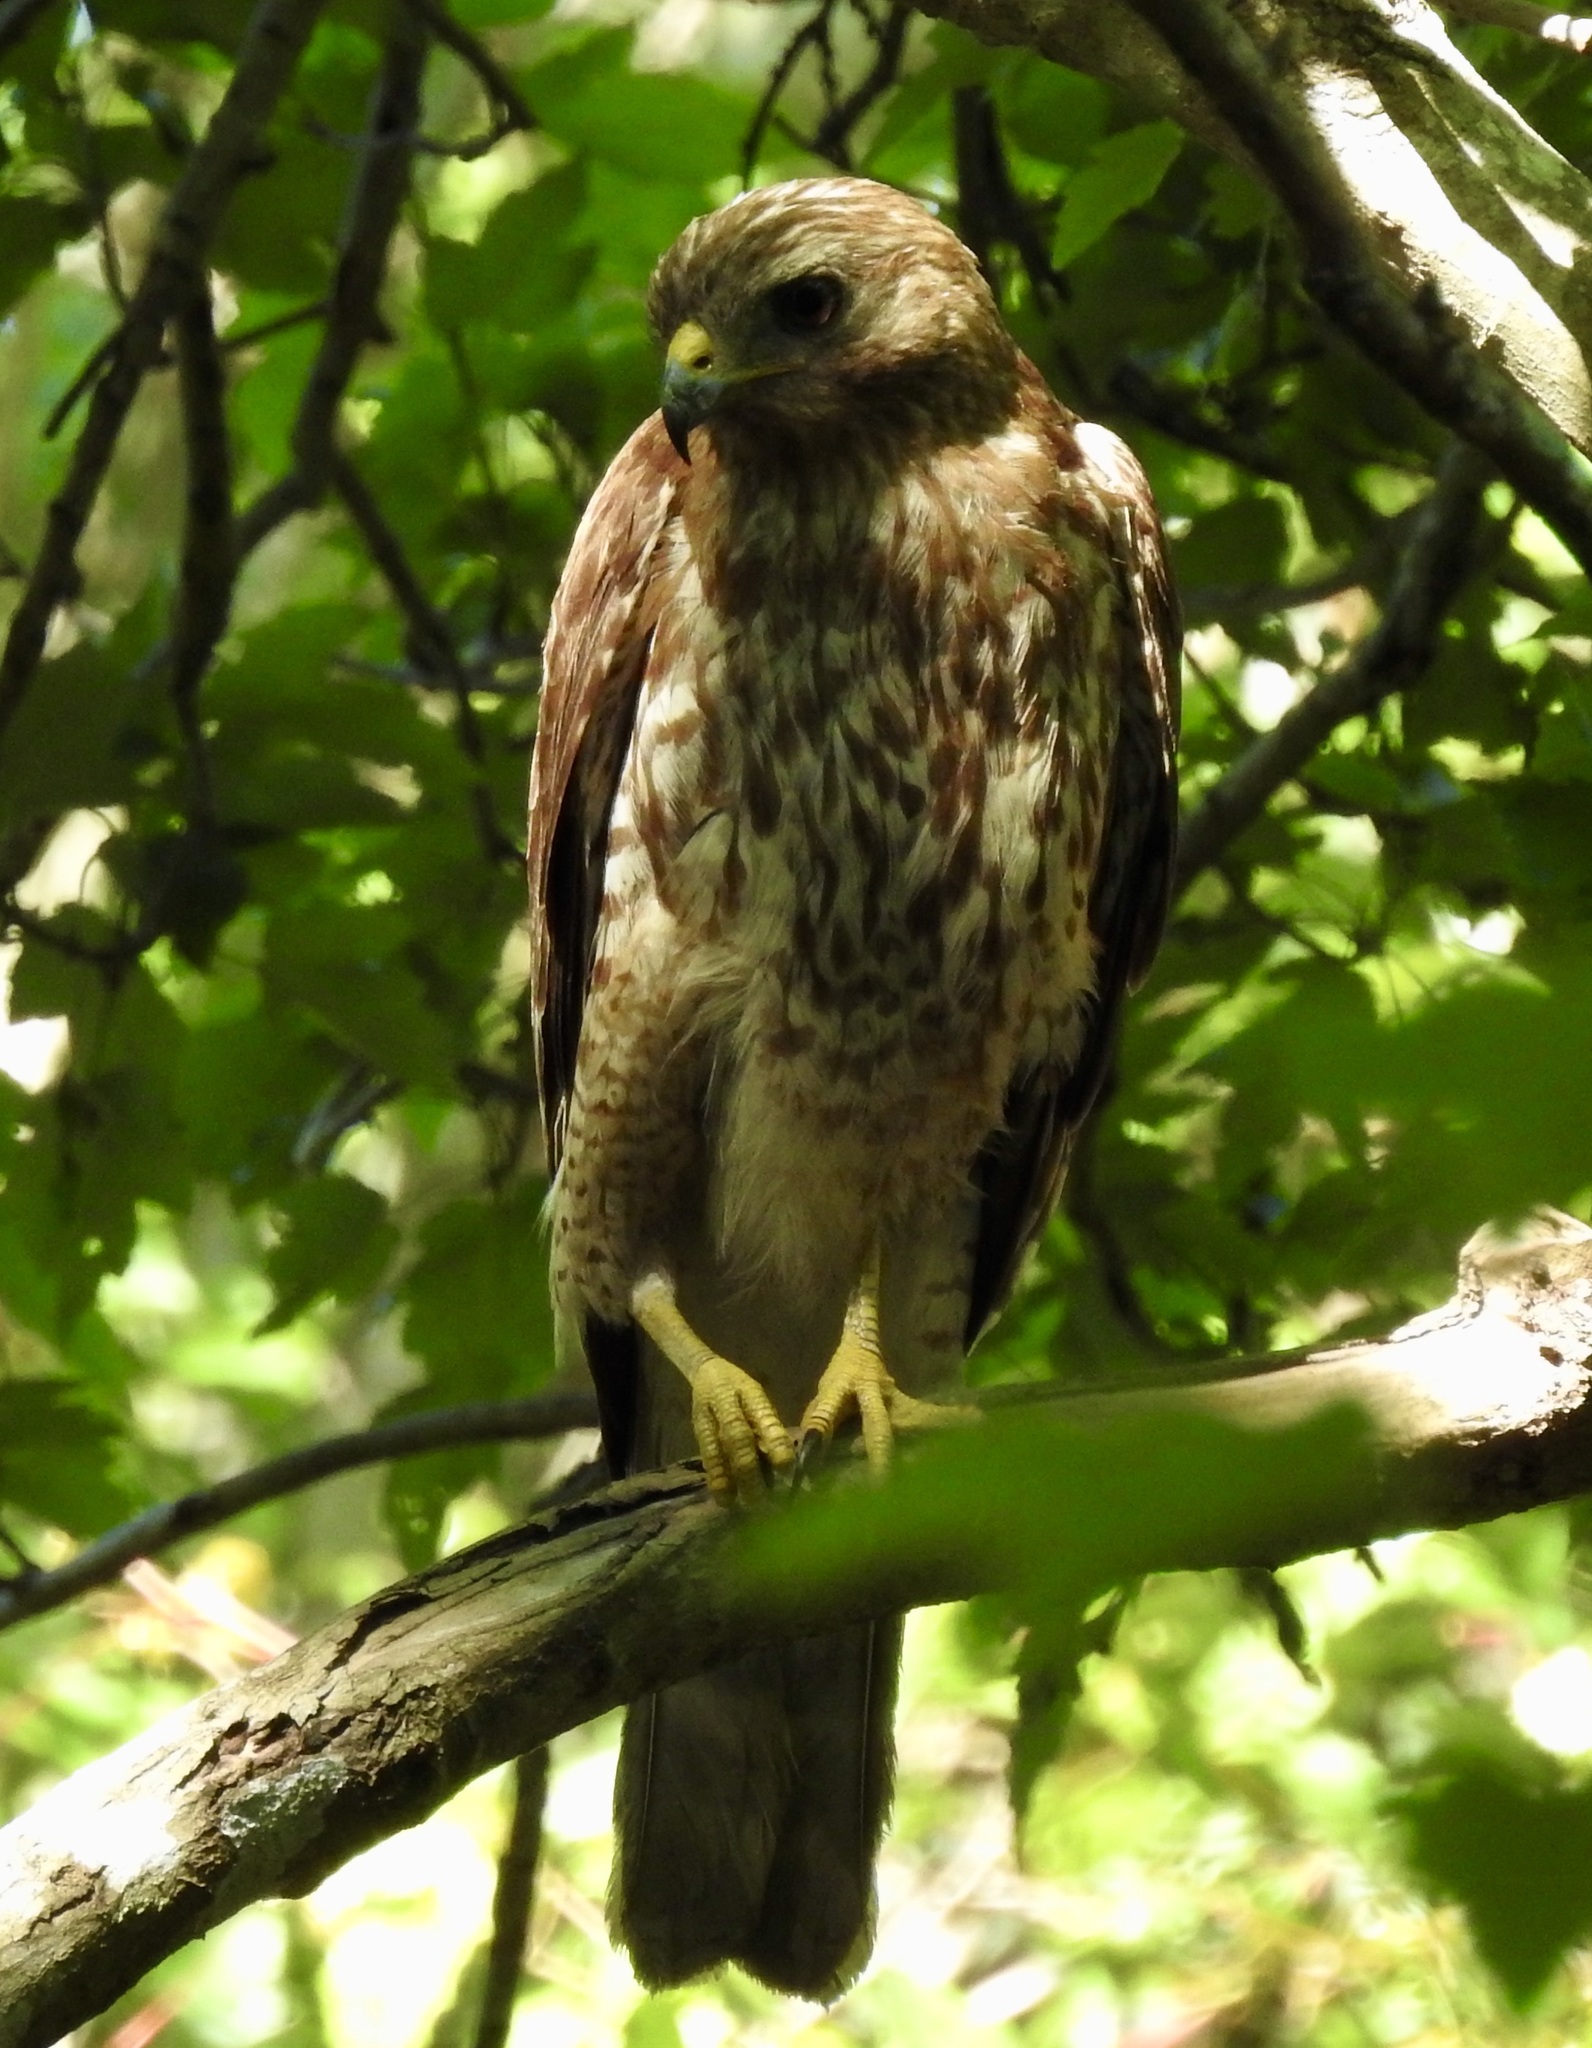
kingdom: Animalia
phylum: Chordata
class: Aves
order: Accipitriformes
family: Accipitridae
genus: Buteo
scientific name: Buteo lineatus
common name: Red-shouldered hawk
